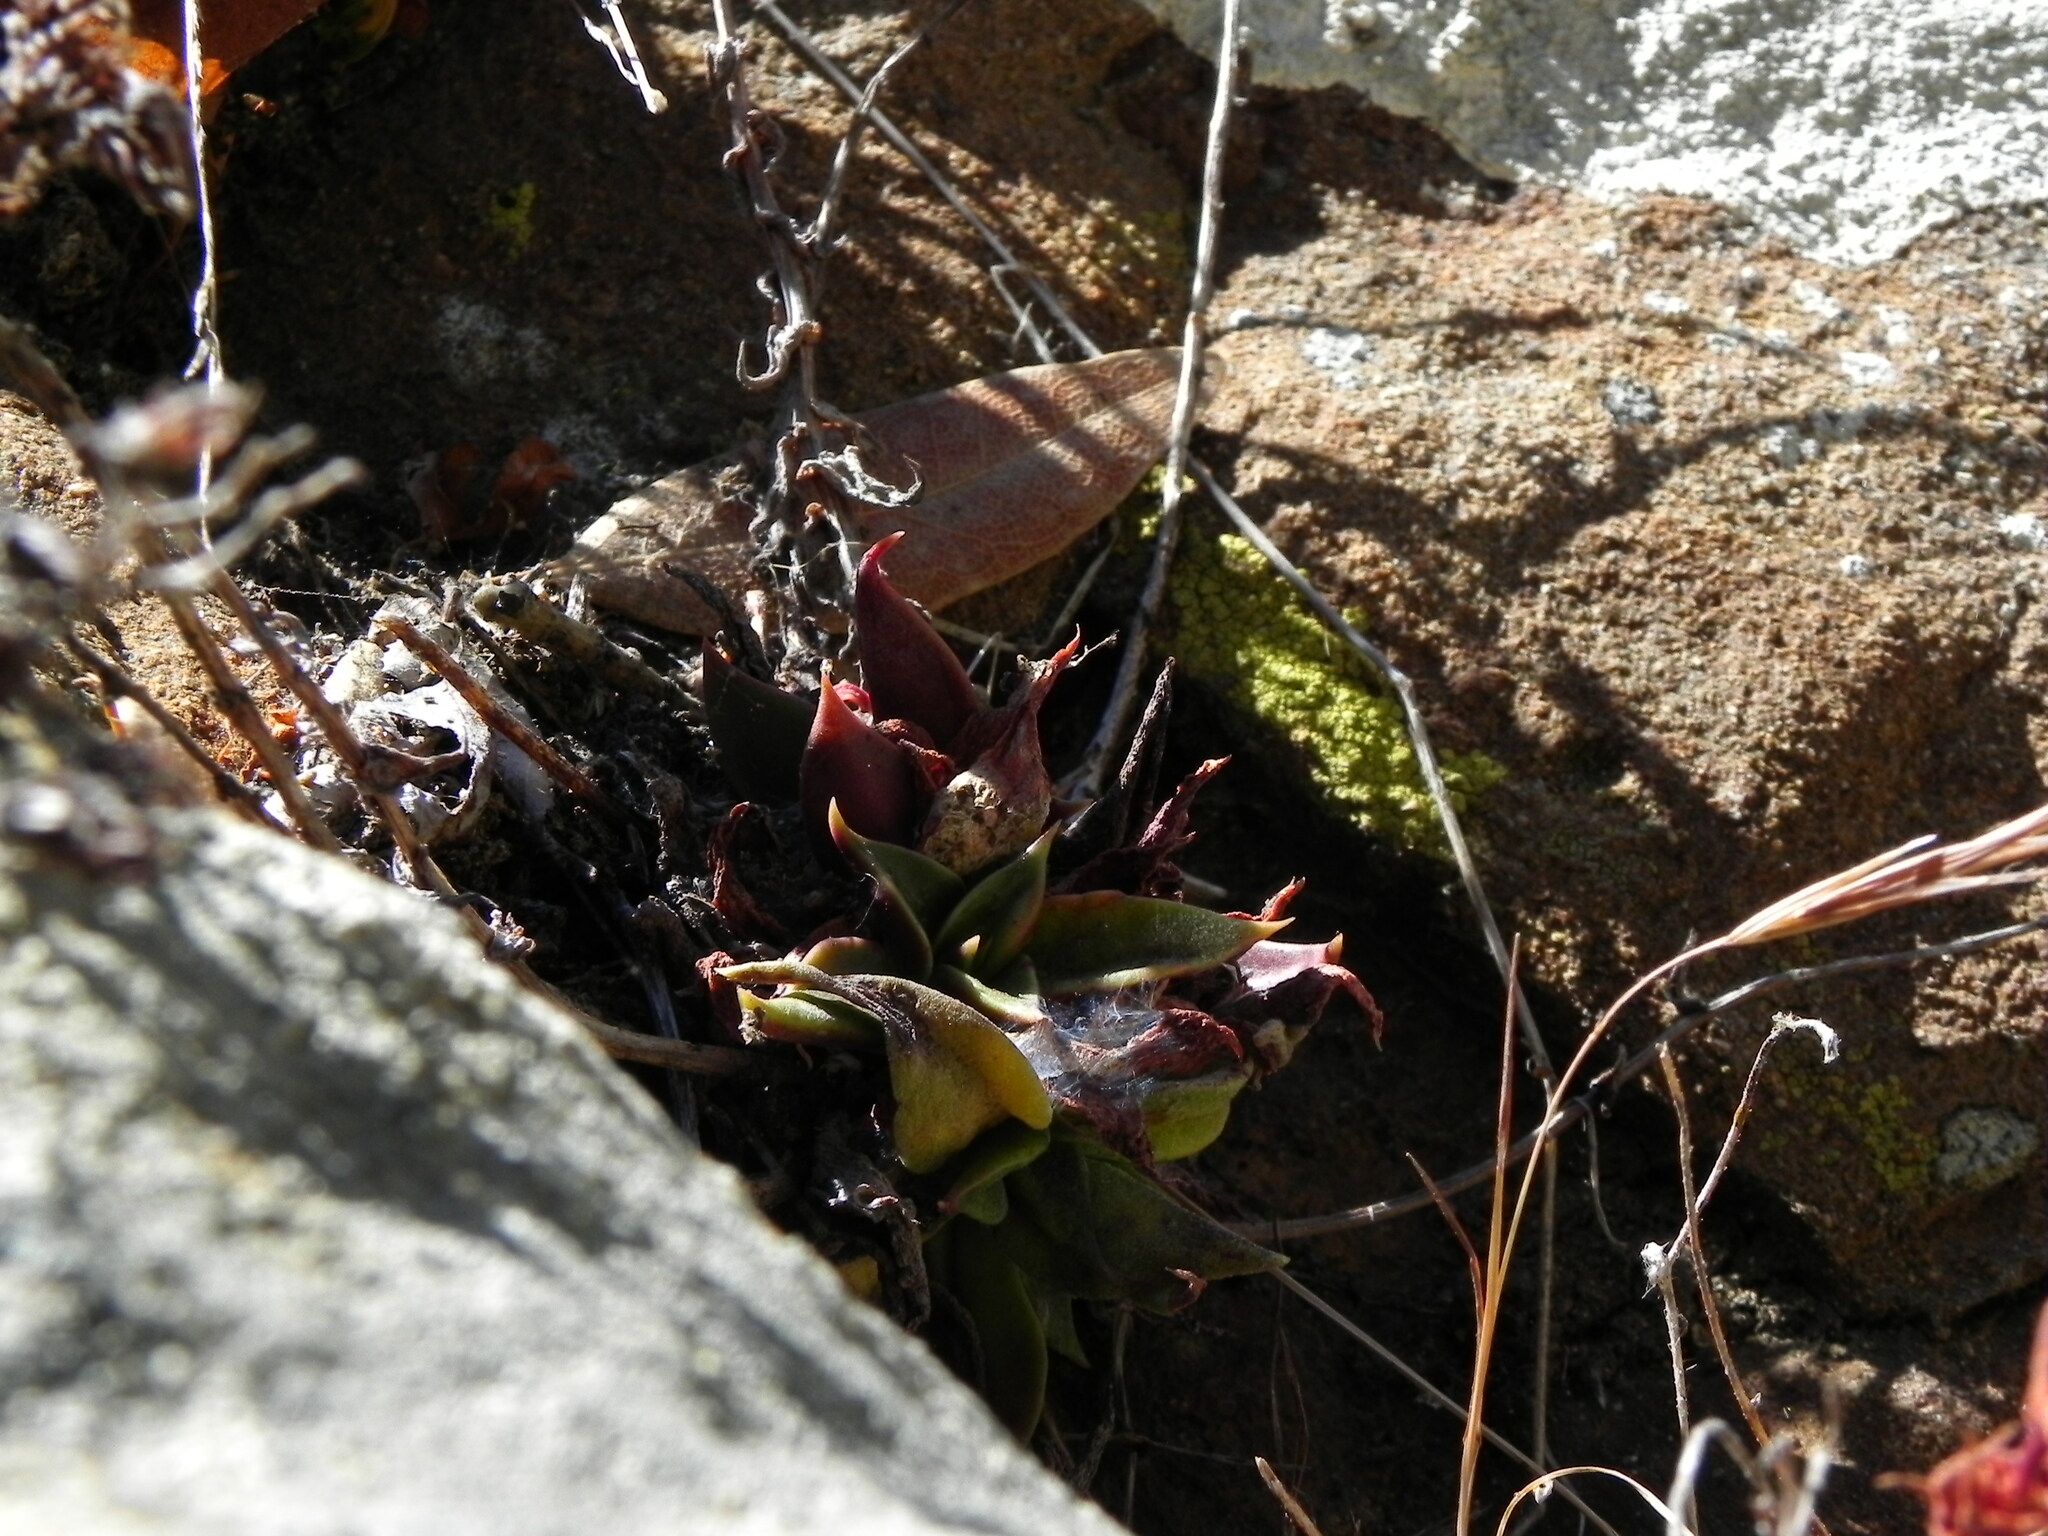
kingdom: Plantae
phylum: Tracheophyta
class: Magnoliopsida
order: Saxifragales
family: Crassulaceae
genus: Dudleya
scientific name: Dudleya cymosa
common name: Canyon dudleya
